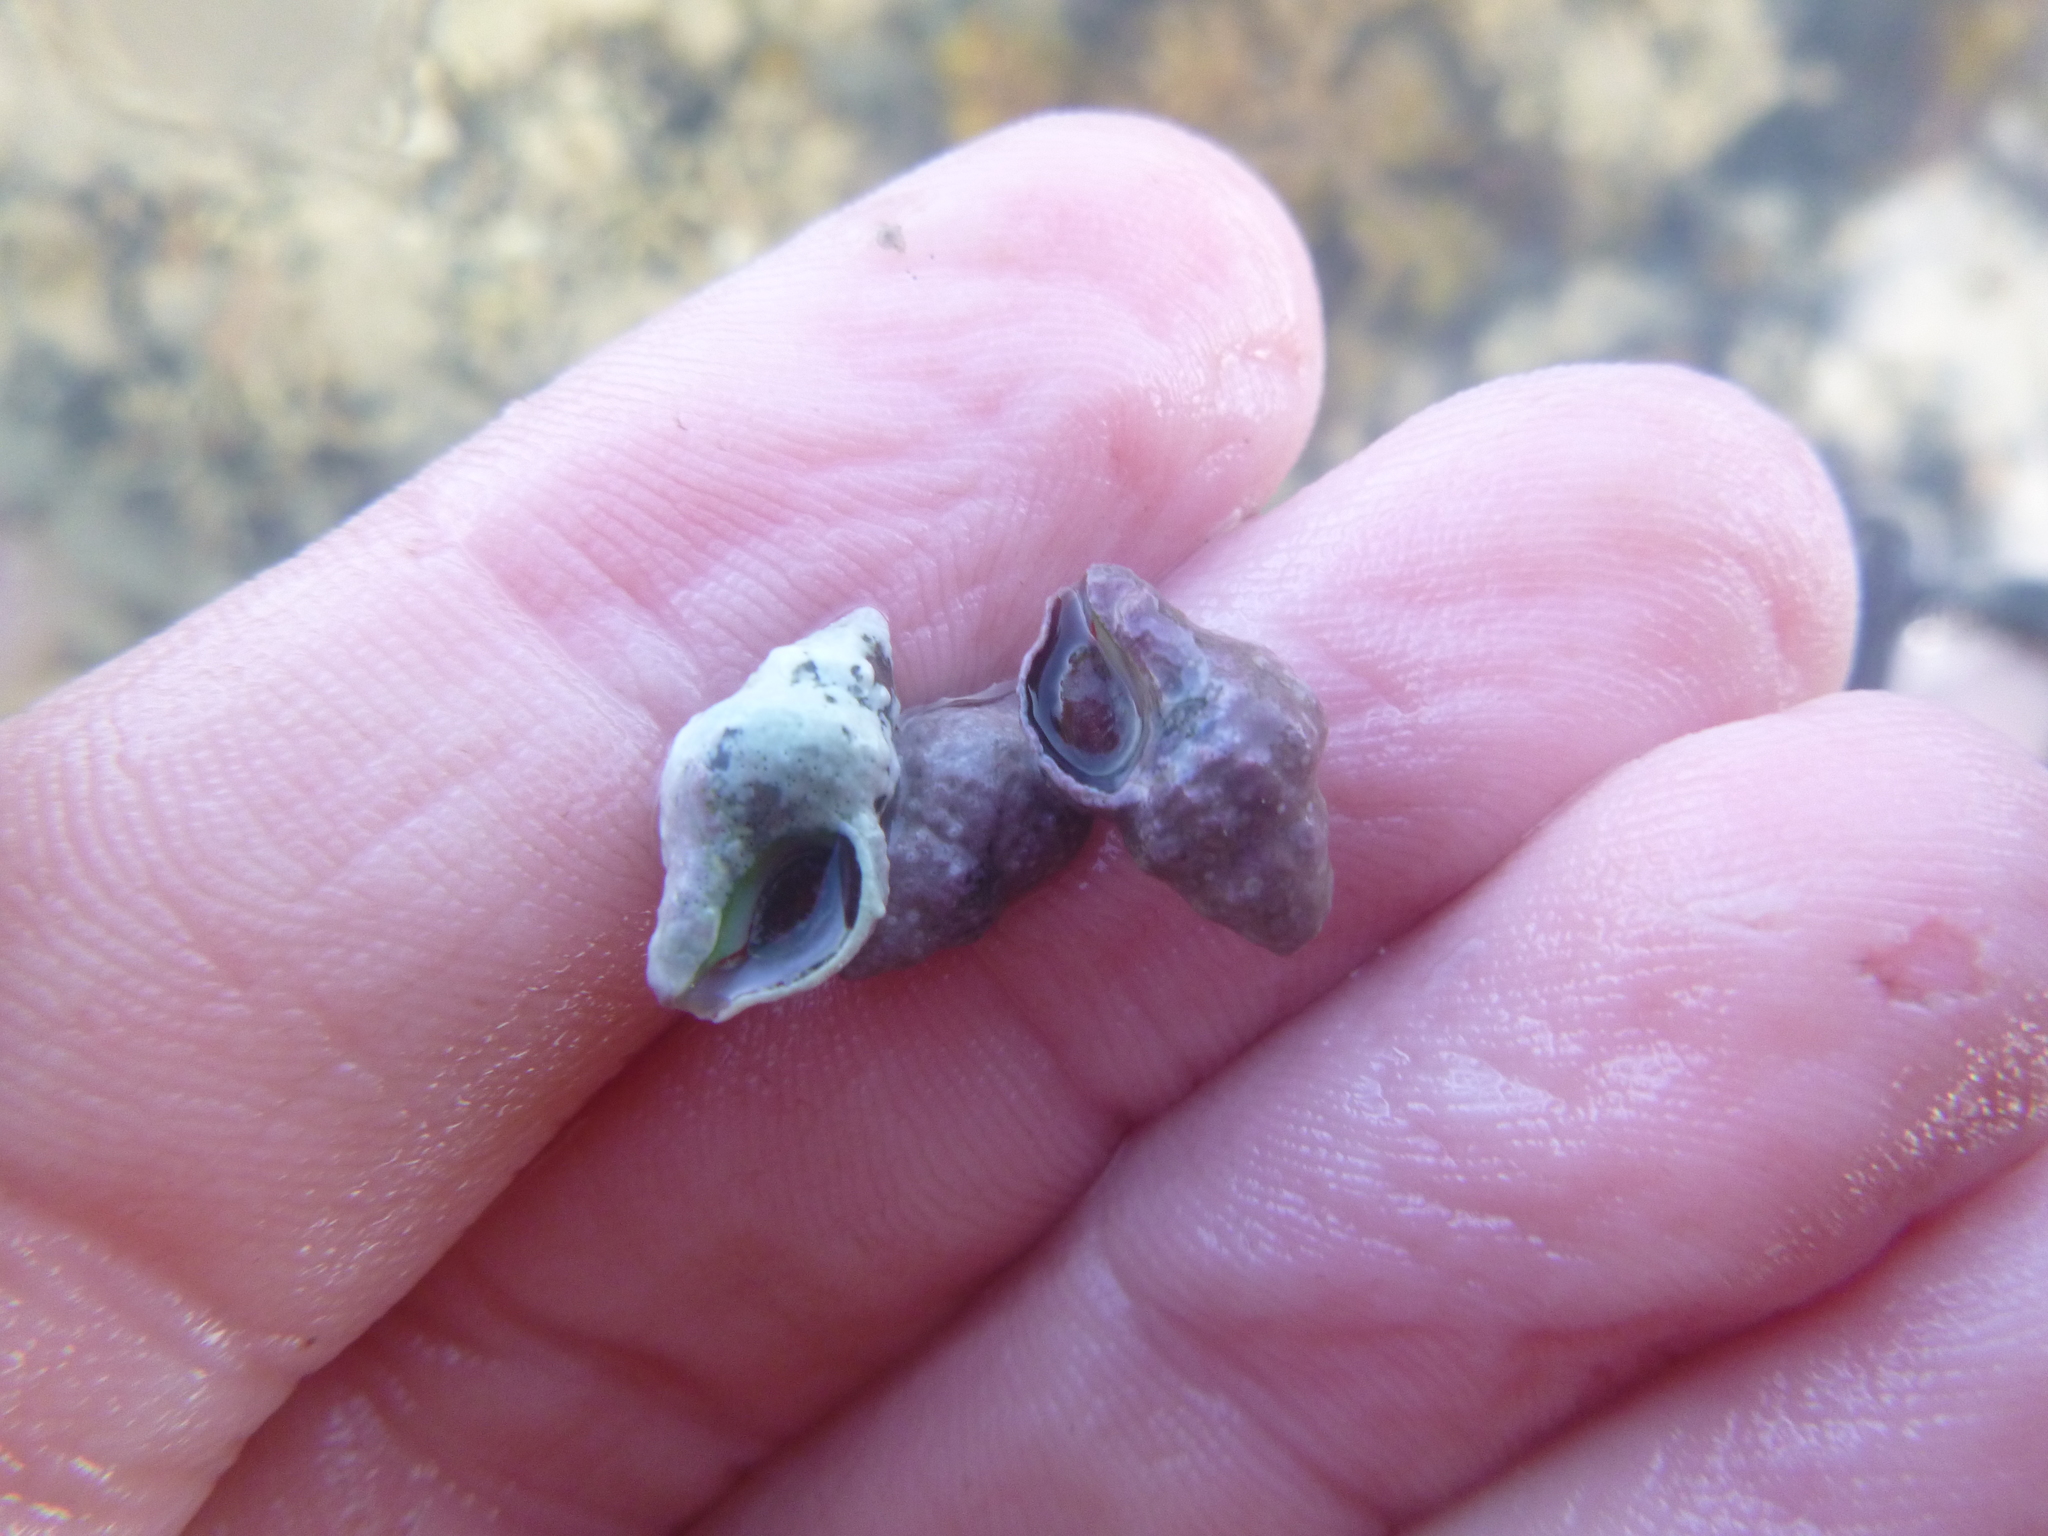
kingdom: Animalia
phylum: Mollusca
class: Gastropoda
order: Neogastropoda
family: Fasciolariidae
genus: Taron
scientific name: Taron dubius
